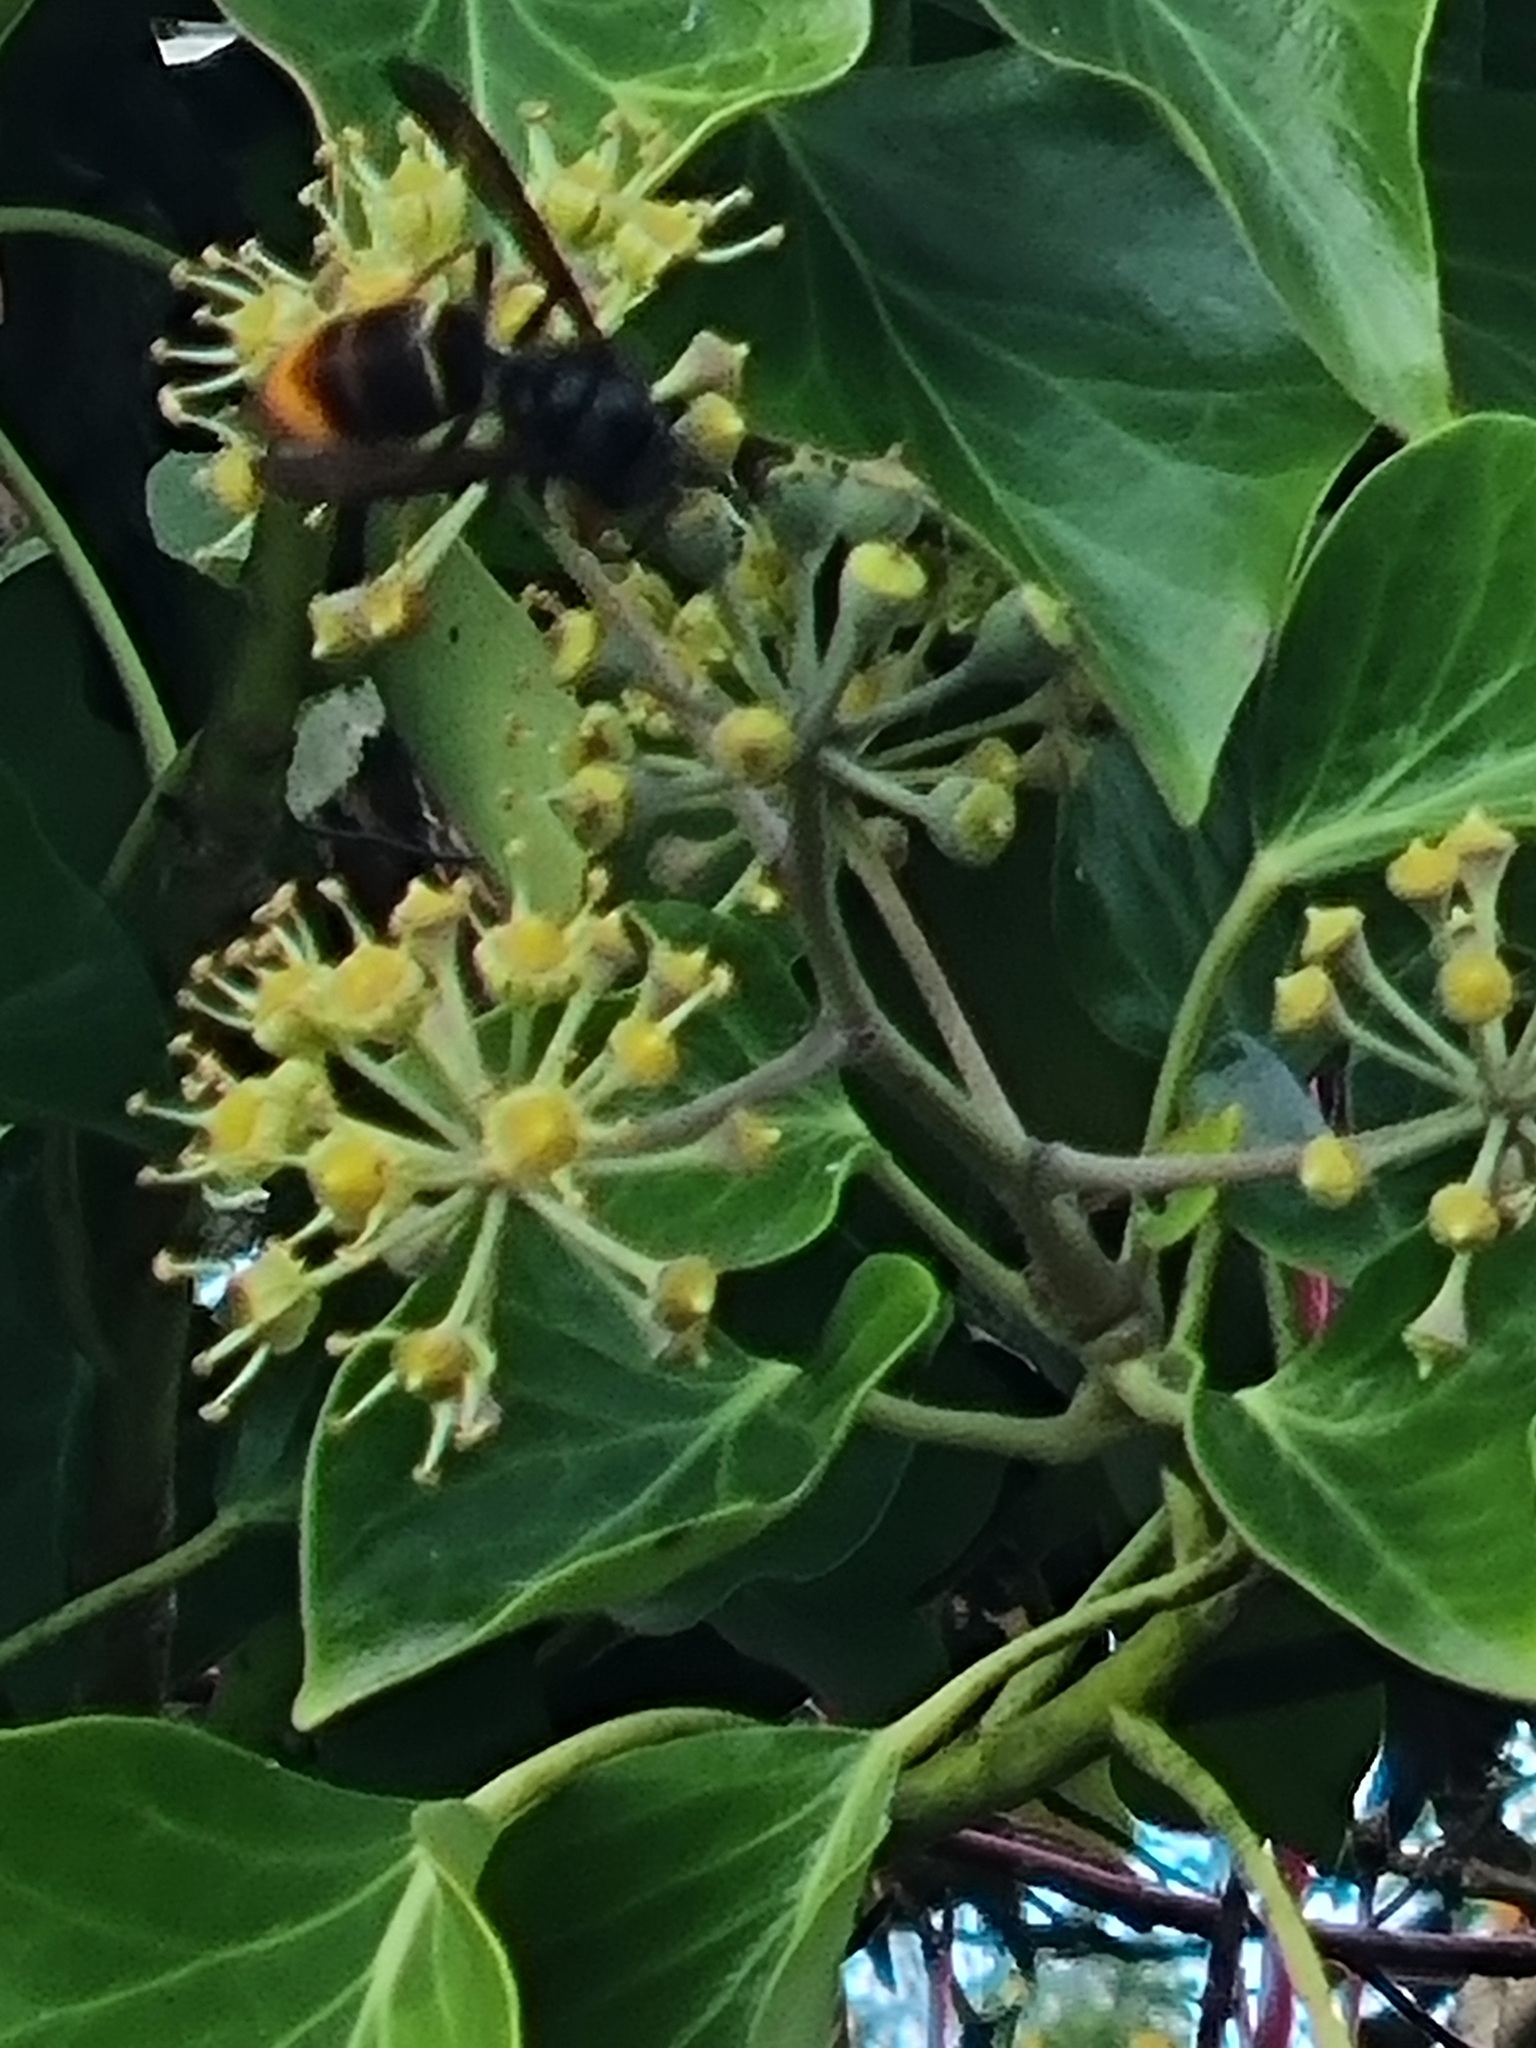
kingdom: Animalia
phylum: Arthropoda
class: Insecta
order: Hymenoptera
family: Vespidae
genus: Vespa
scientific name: Vespa velutina
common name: Asian hornet
